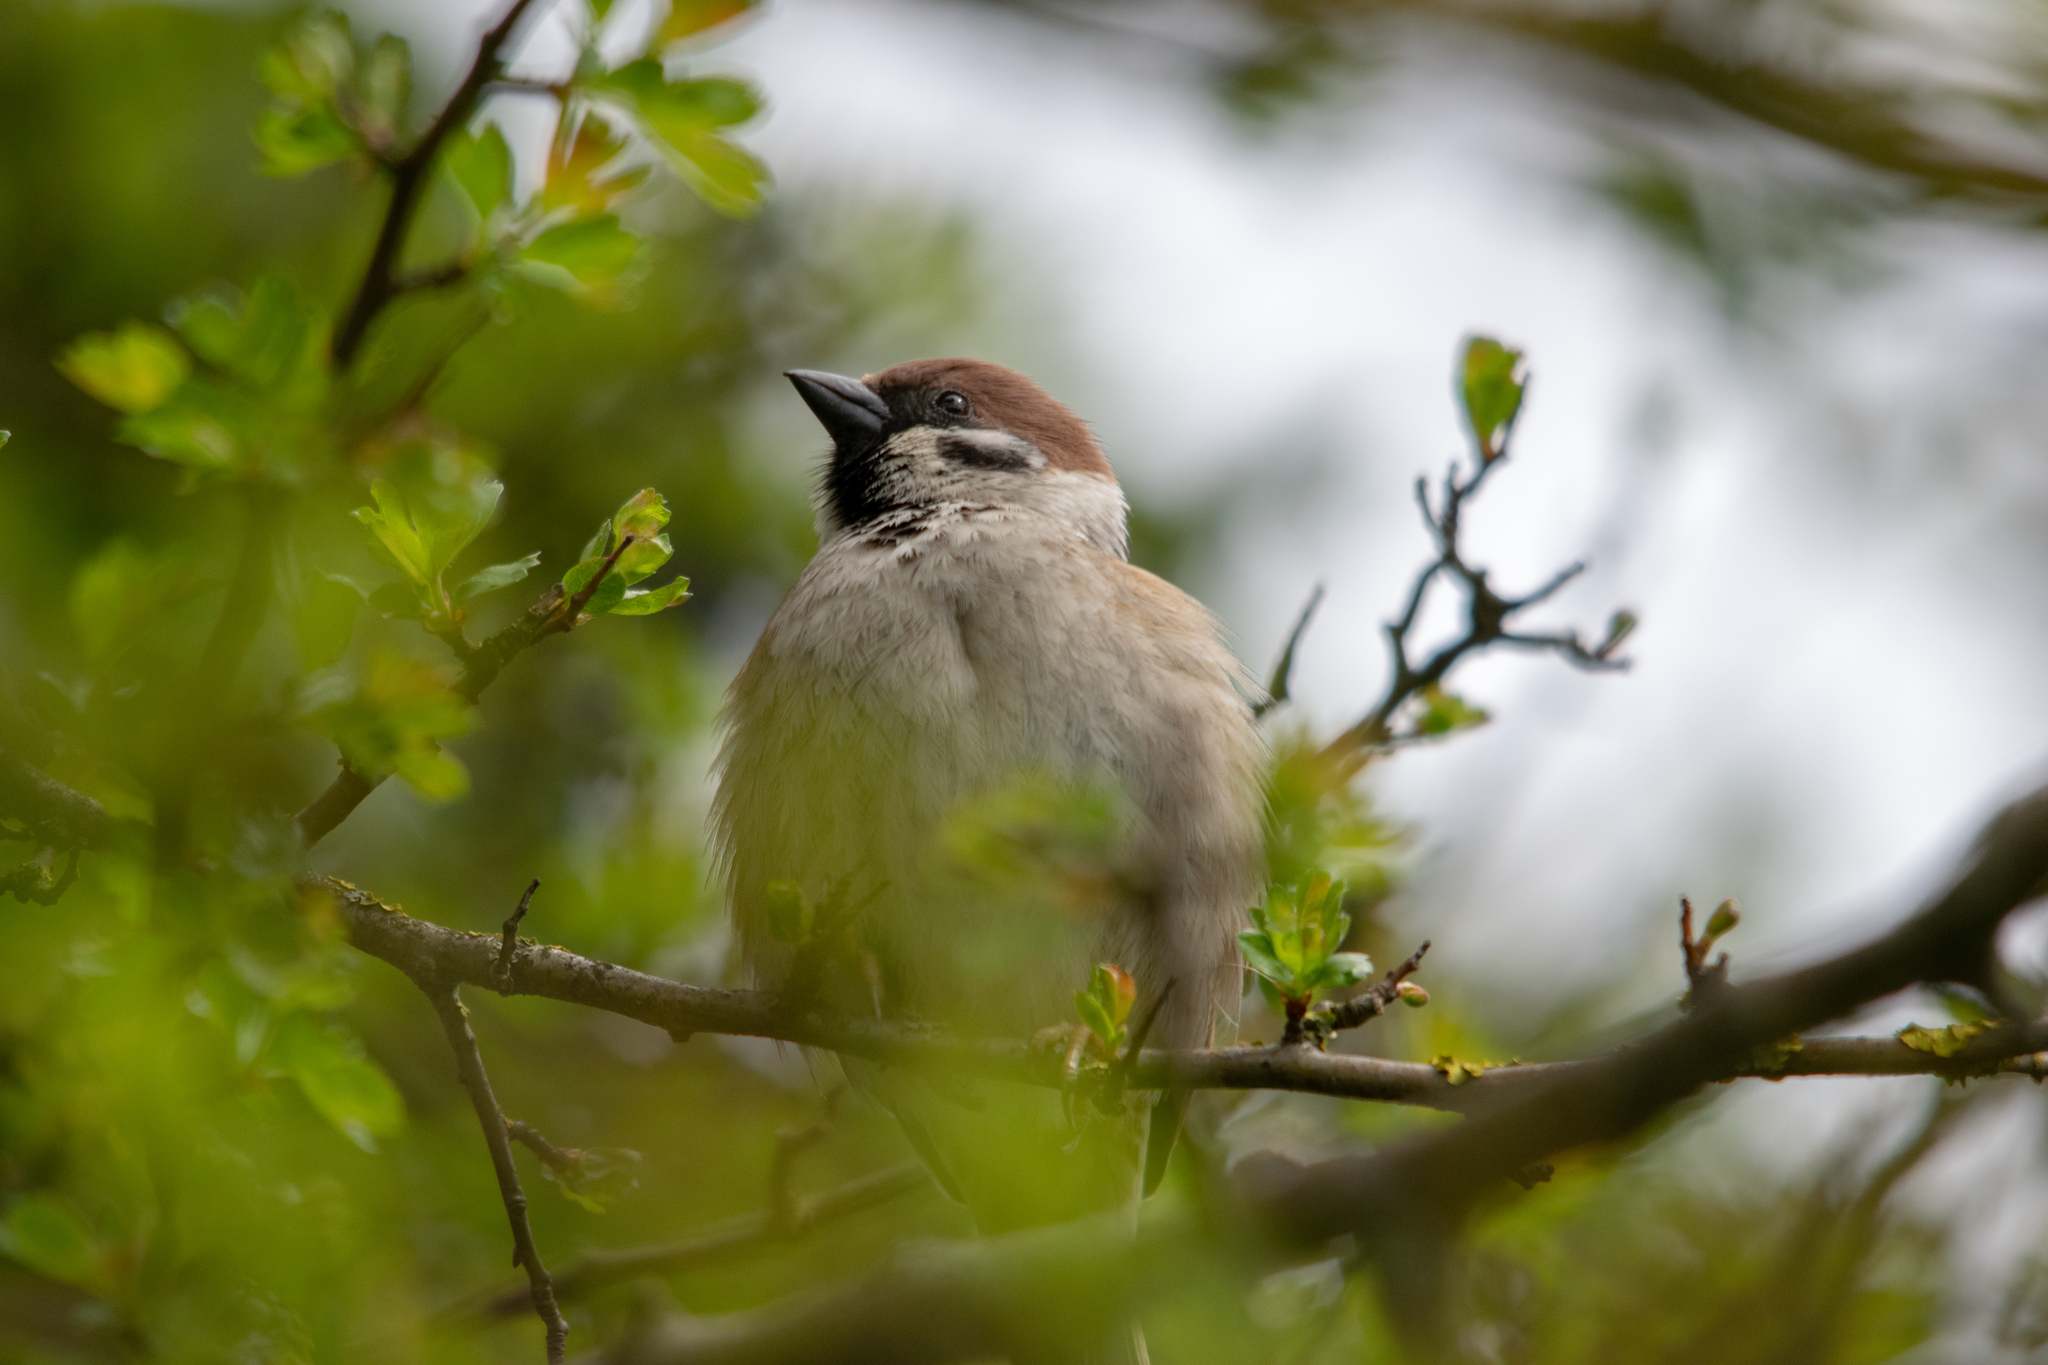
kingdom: Animalia
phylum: Chordata
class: Aves
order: Passeriformes
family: Passeridae
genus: Passer
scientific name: Passer montanus
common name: Eurasian tree sparrow
